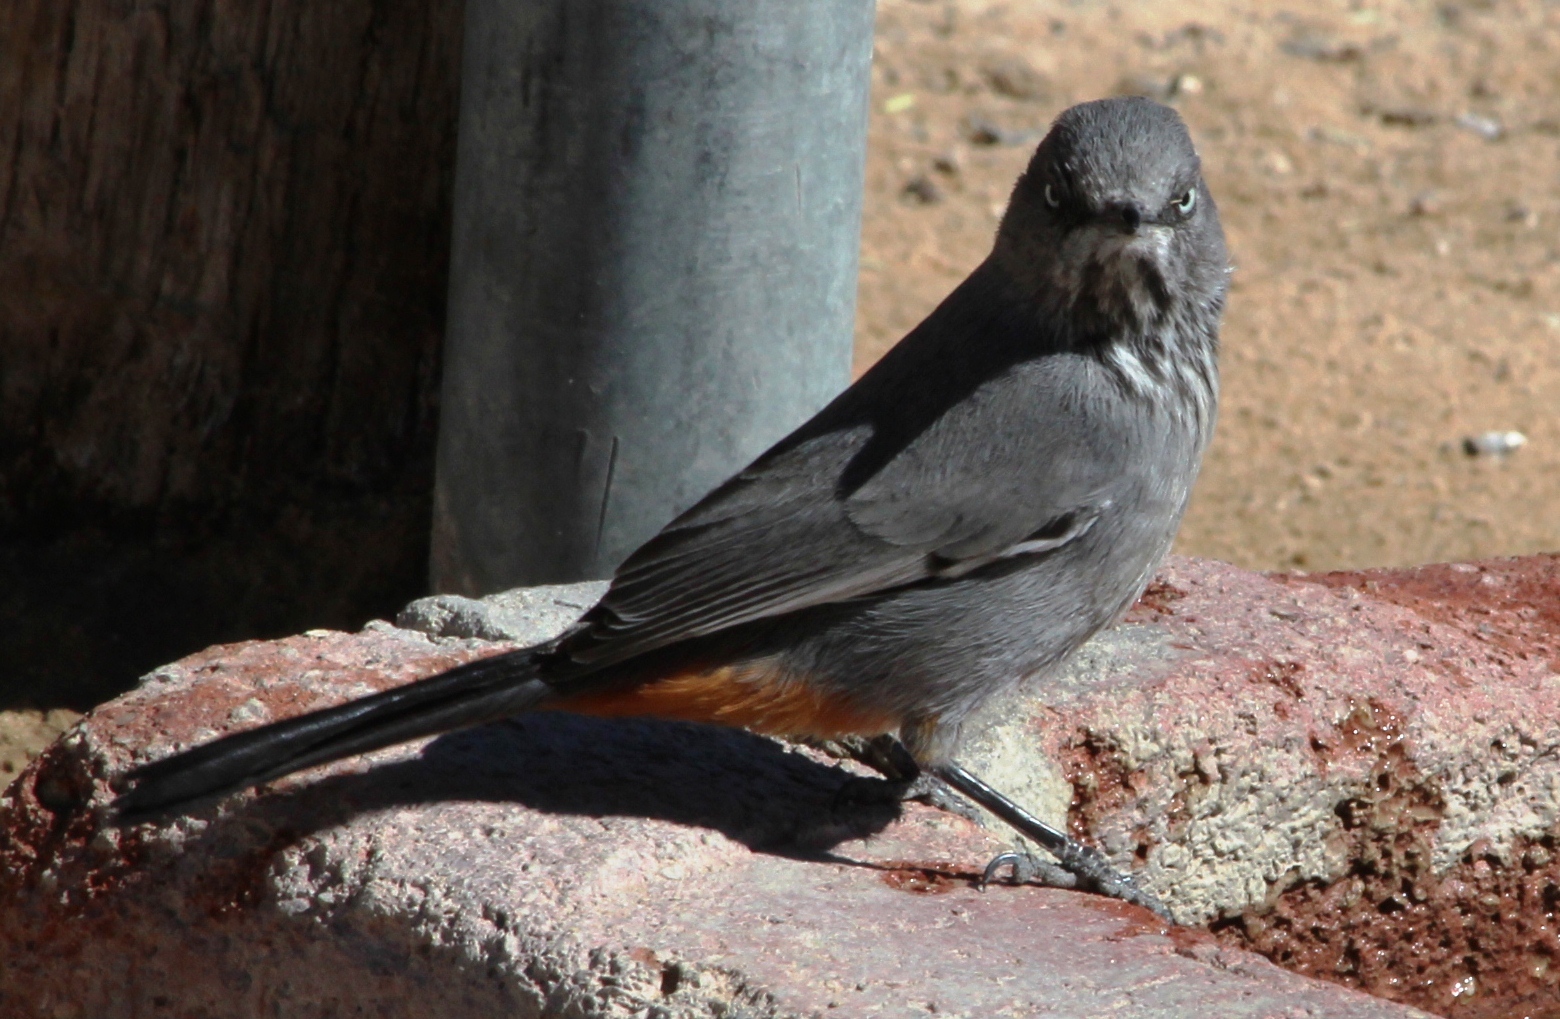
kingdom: Animalia
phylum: Chordata
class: Aves
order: Passeriformes
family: Sylviidae
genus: Sylvia
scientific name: Sylvia subcaerulea
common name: Chestnut-vented warbler
